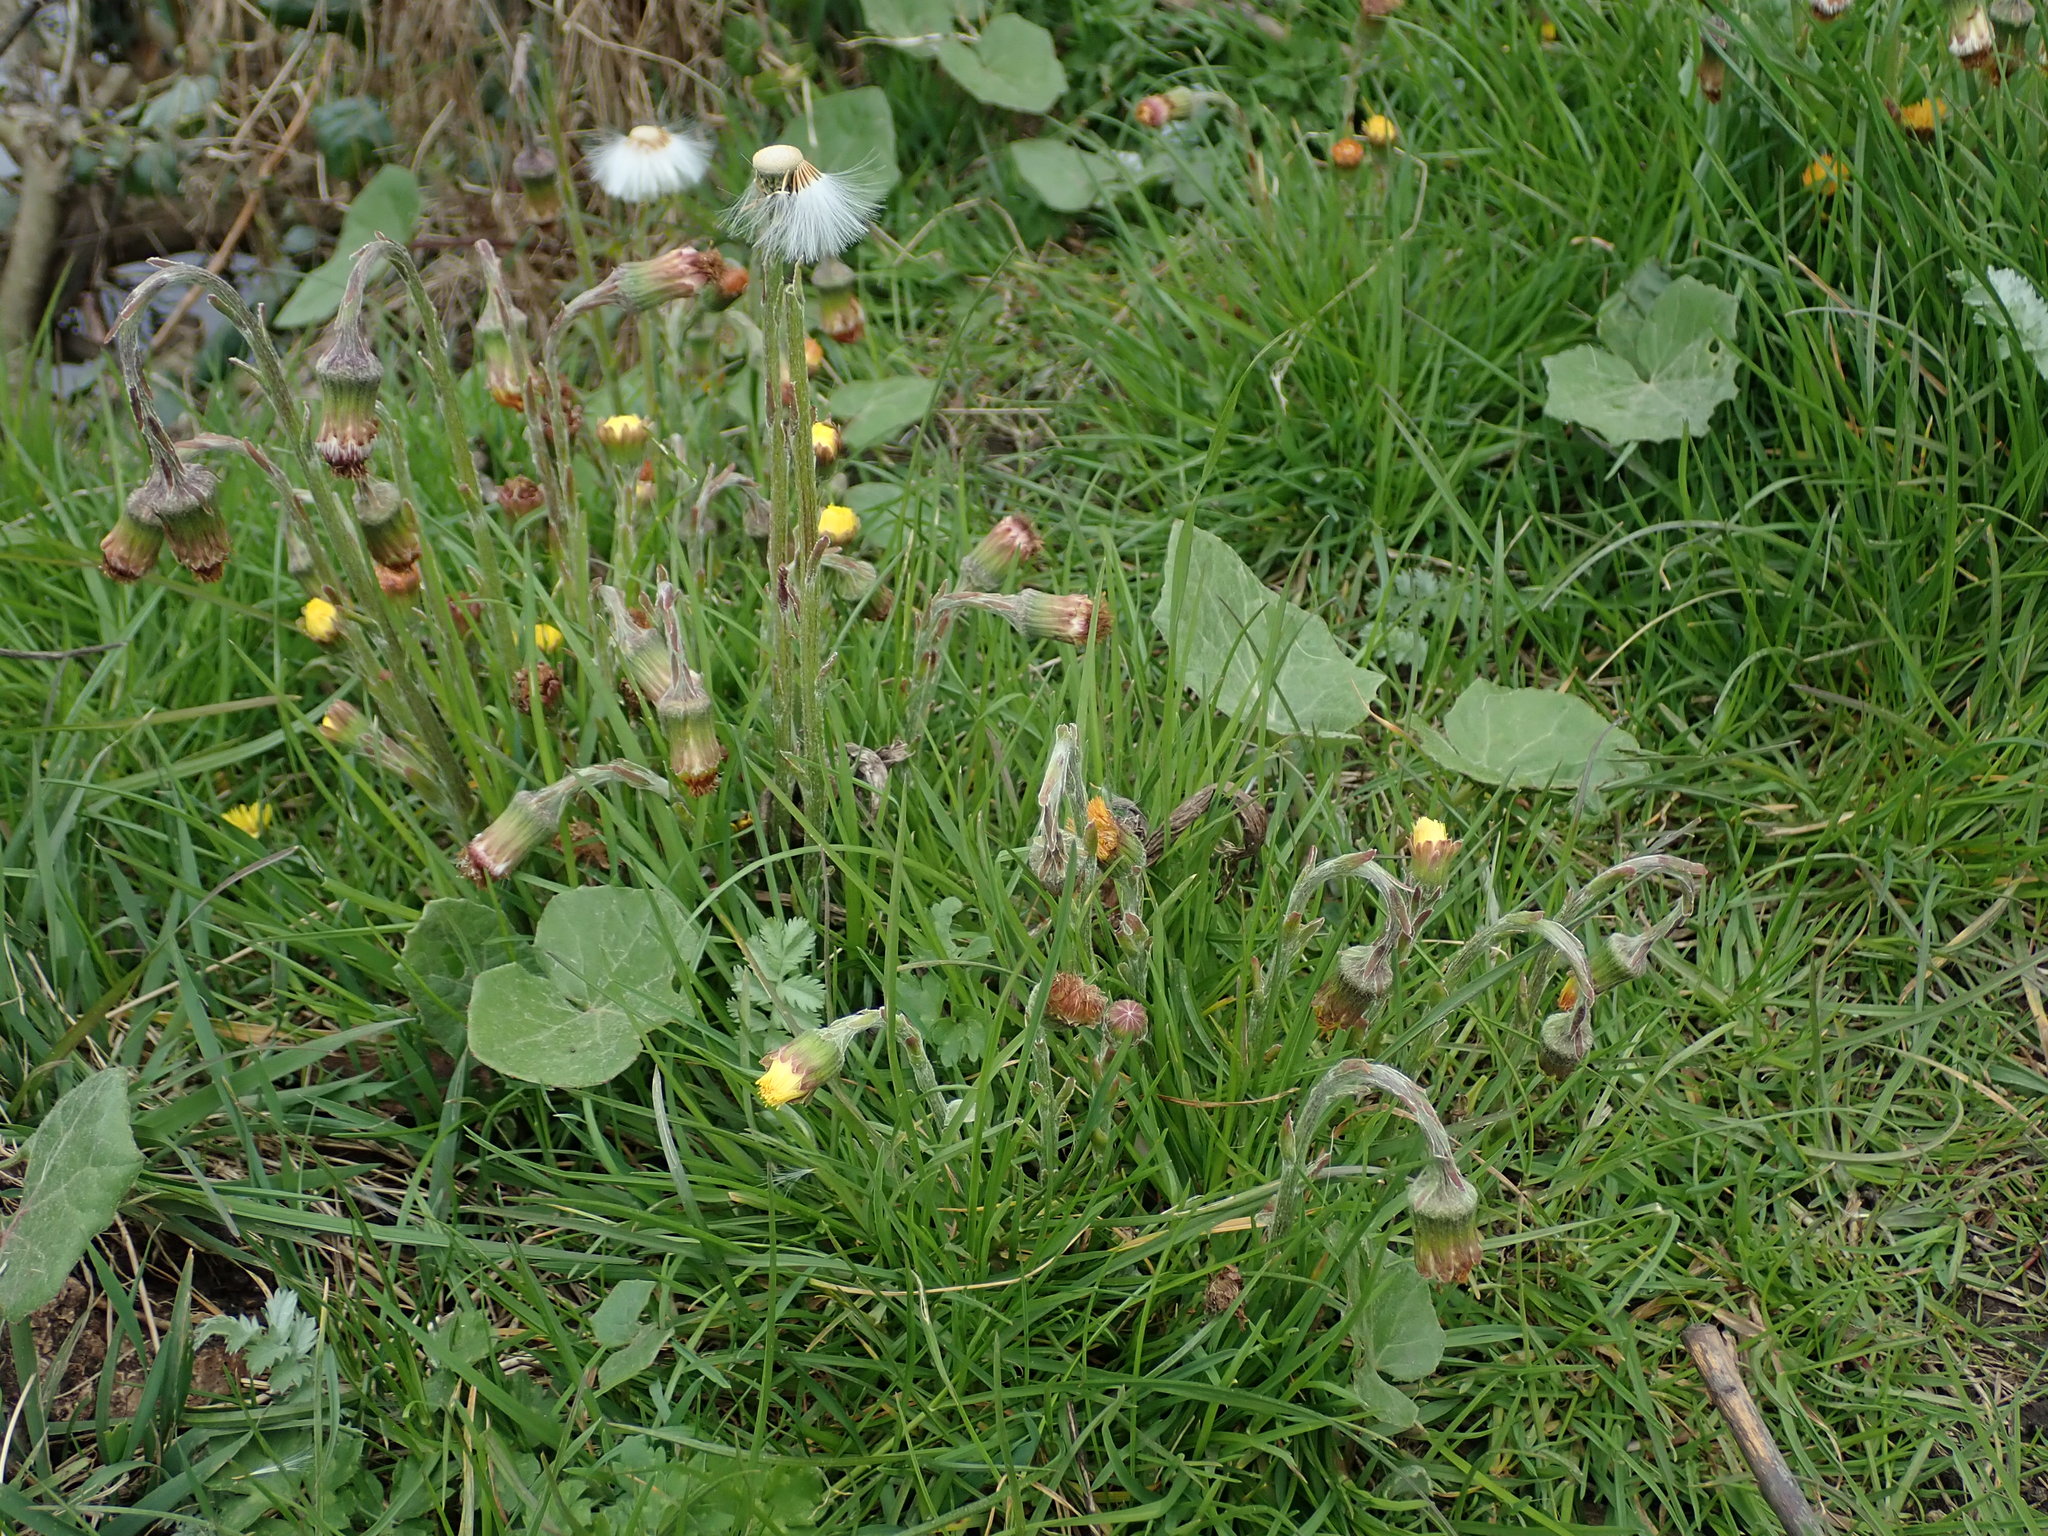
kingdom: Plantae
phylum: Tracheophyta
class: Magnoliopsida
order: Asterales
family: Asteraceae
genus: Tussilago
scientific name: Tussilago farfara
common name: Coltsfoot
